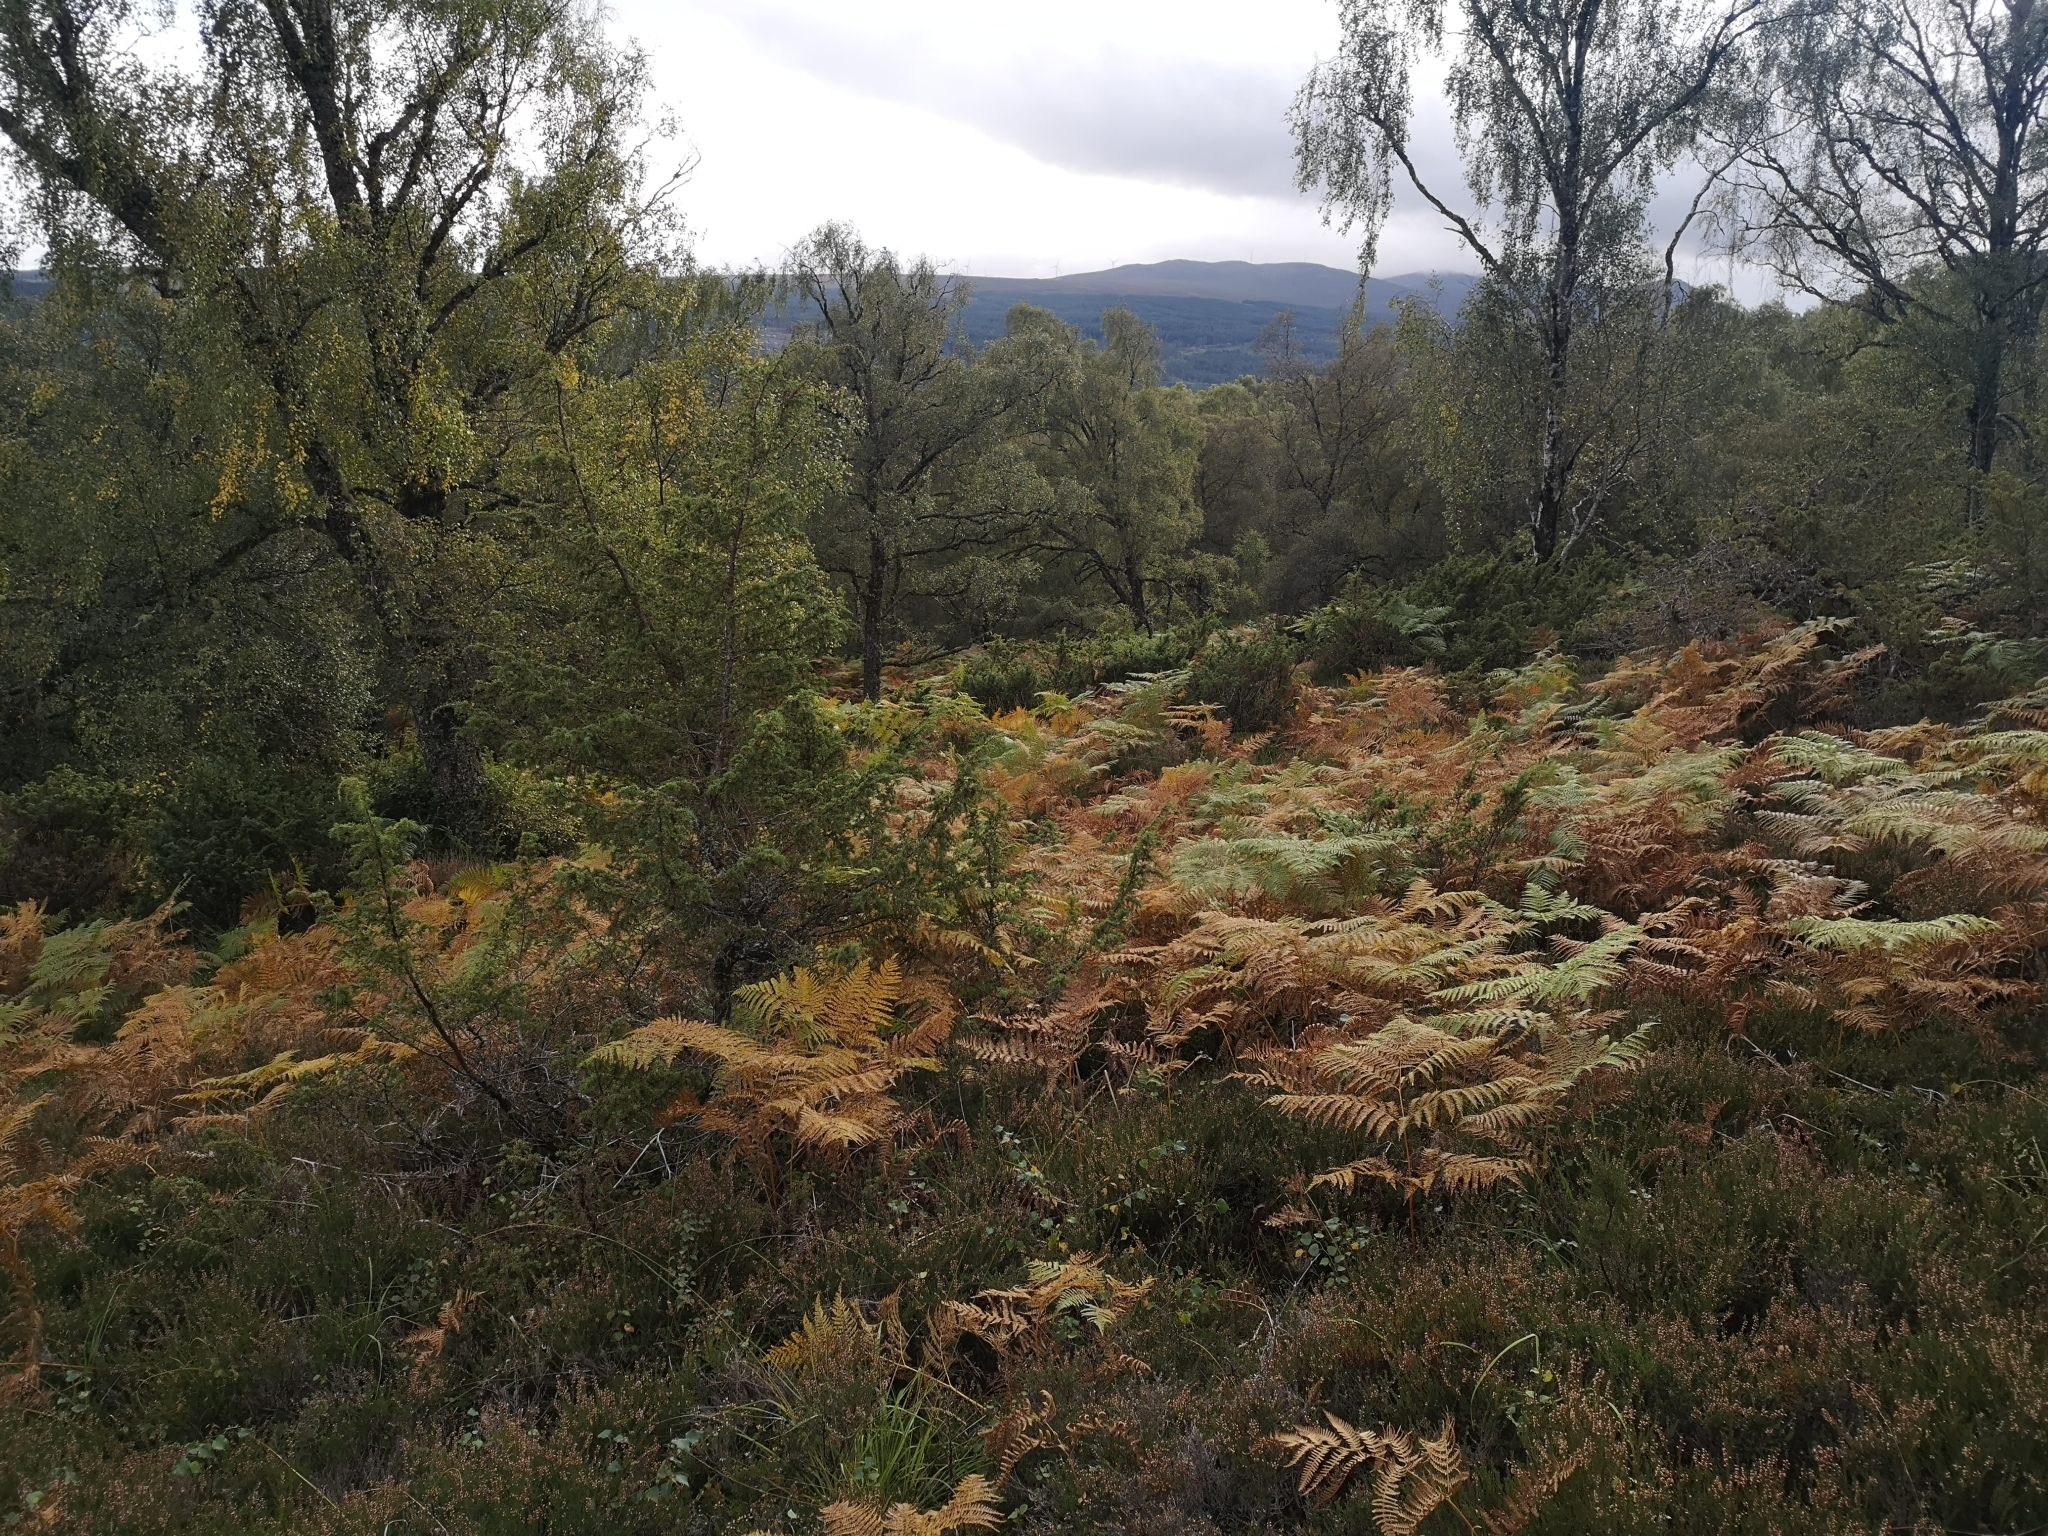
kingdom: Plantae
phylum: Tracheophyta
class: Polypodiopsida
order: Polypodiales
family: Dennstaedtiaceae
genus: Pteridium
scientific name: Pteridium aquilinum
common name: Bracken
